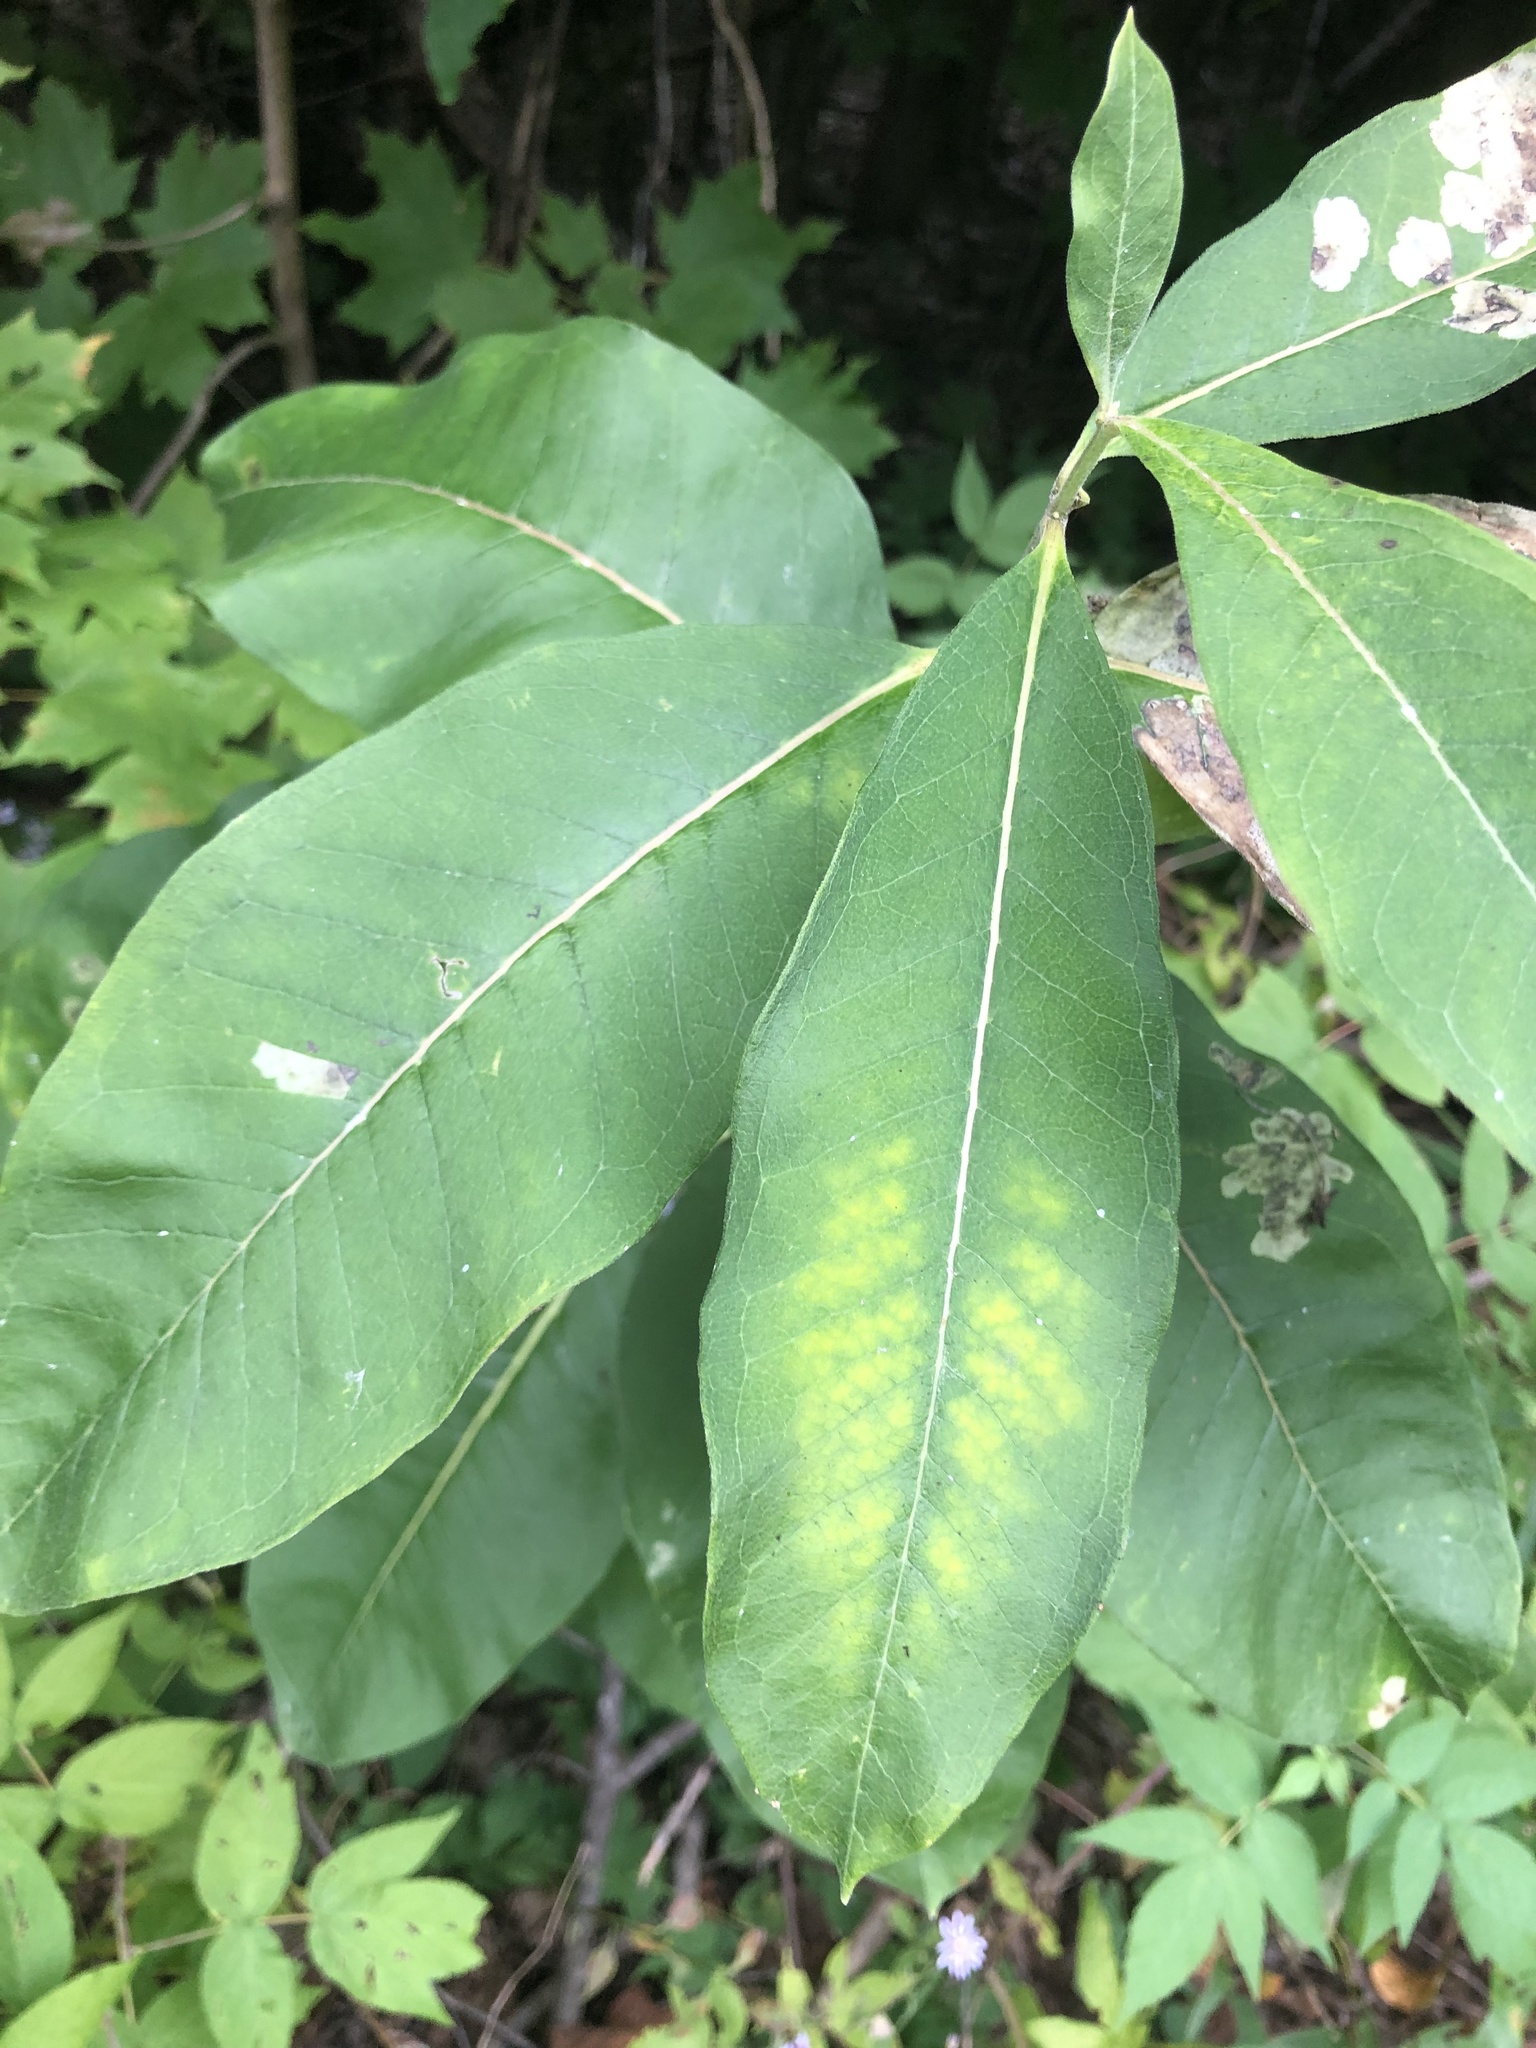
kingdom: Plantae
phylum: Tracheophyta
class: Magnoliopsida
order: Gentianales
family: Apocynaceae
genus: Asclepias
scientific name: Asclepias syriaca
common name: Common milkweed
